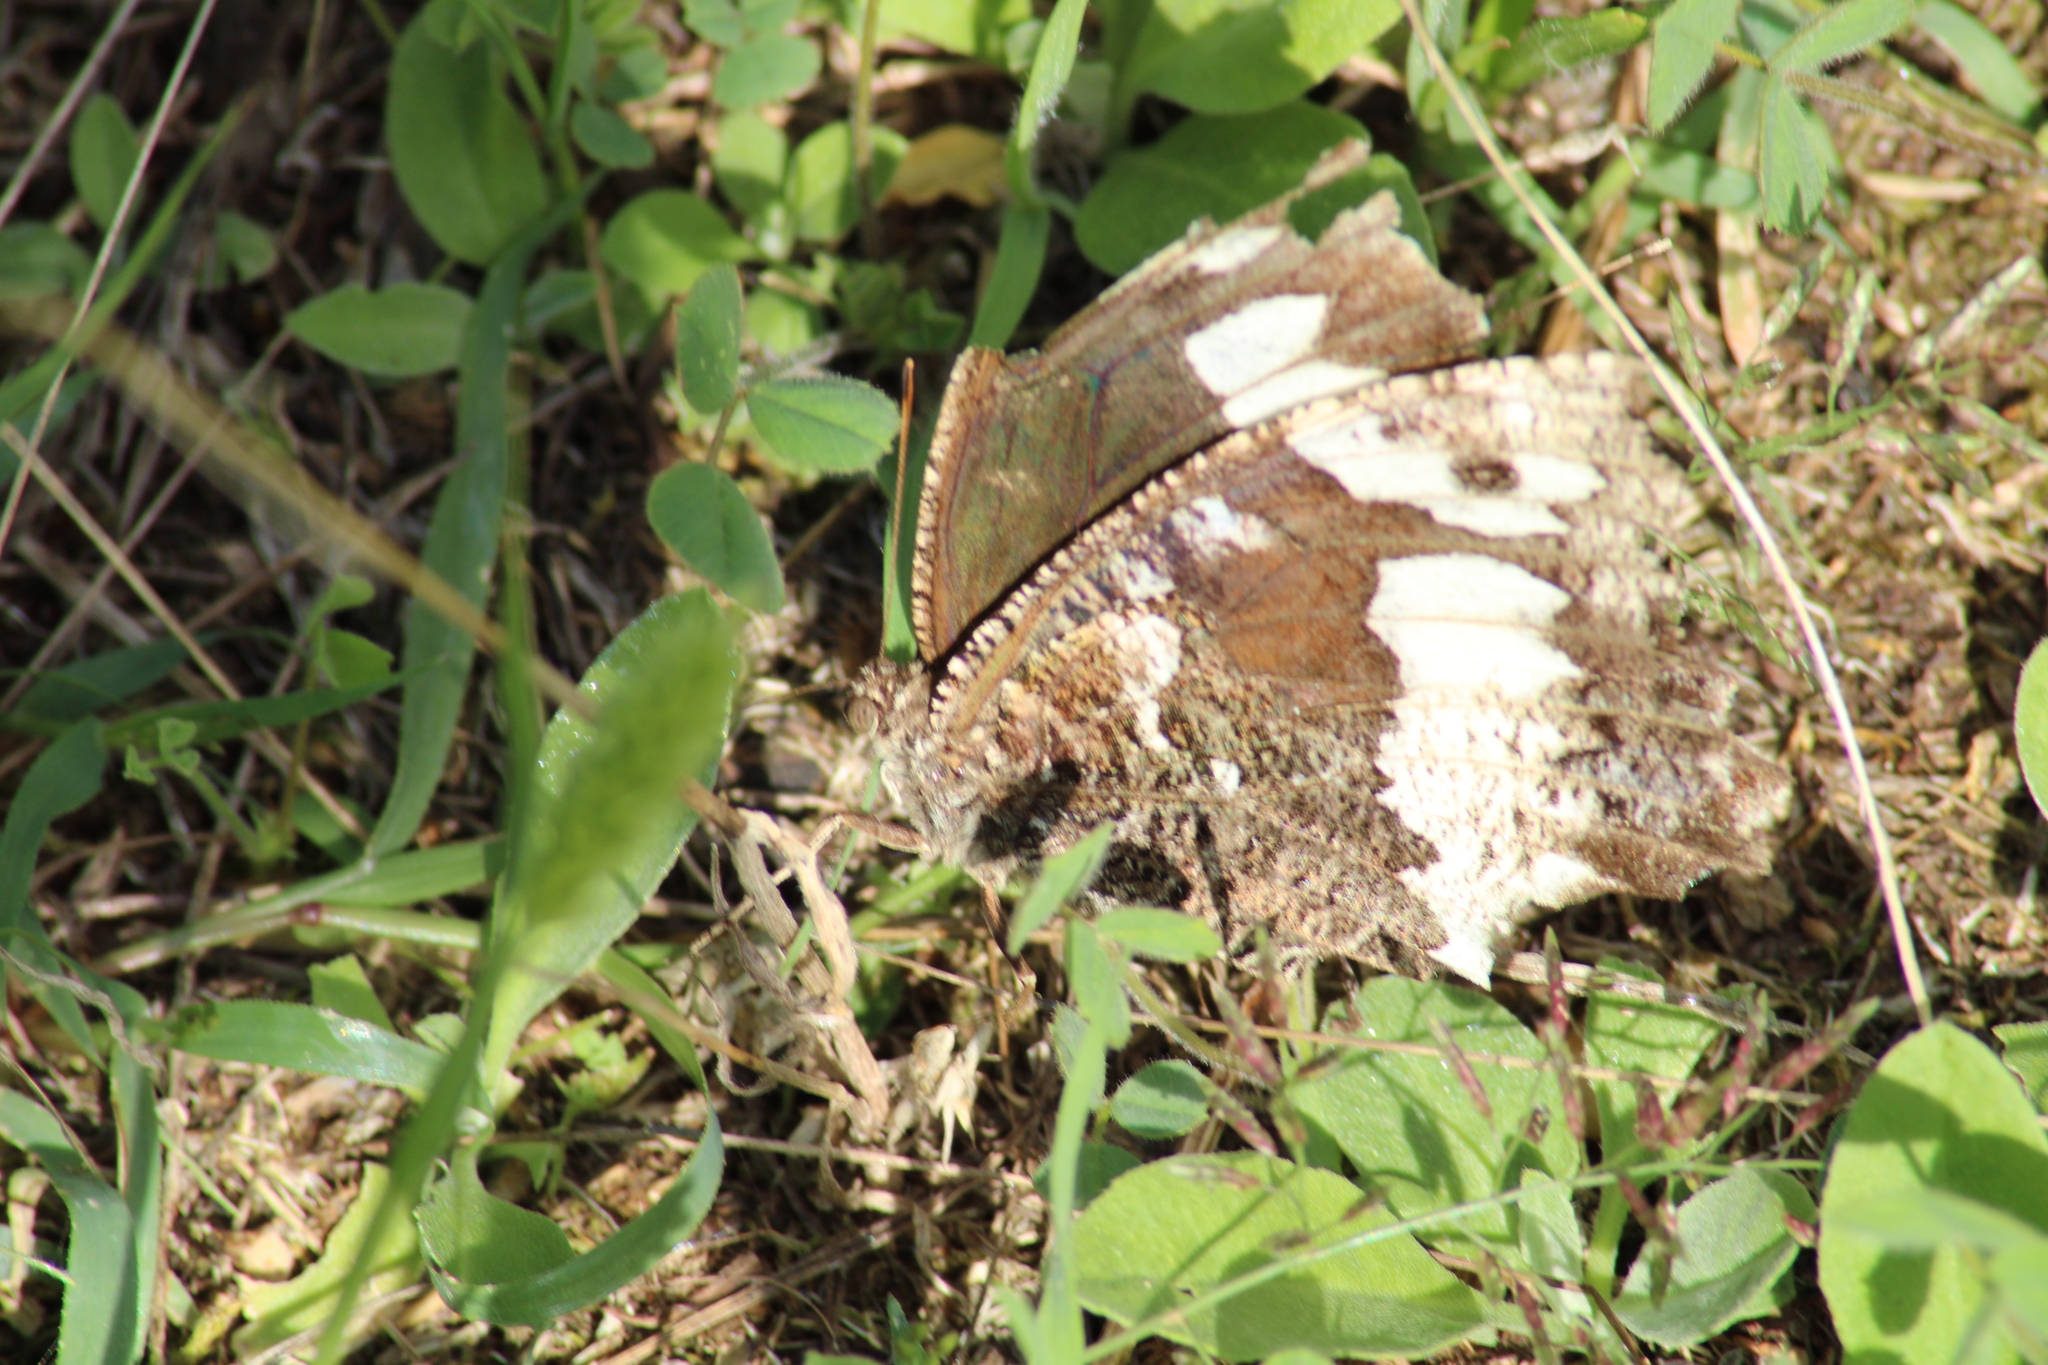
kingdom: Animalia
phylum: Arthropoda
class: Insecta
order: Lepidoptera
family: Lycaenidae
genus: Loweia
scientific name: Loweia tityrus
